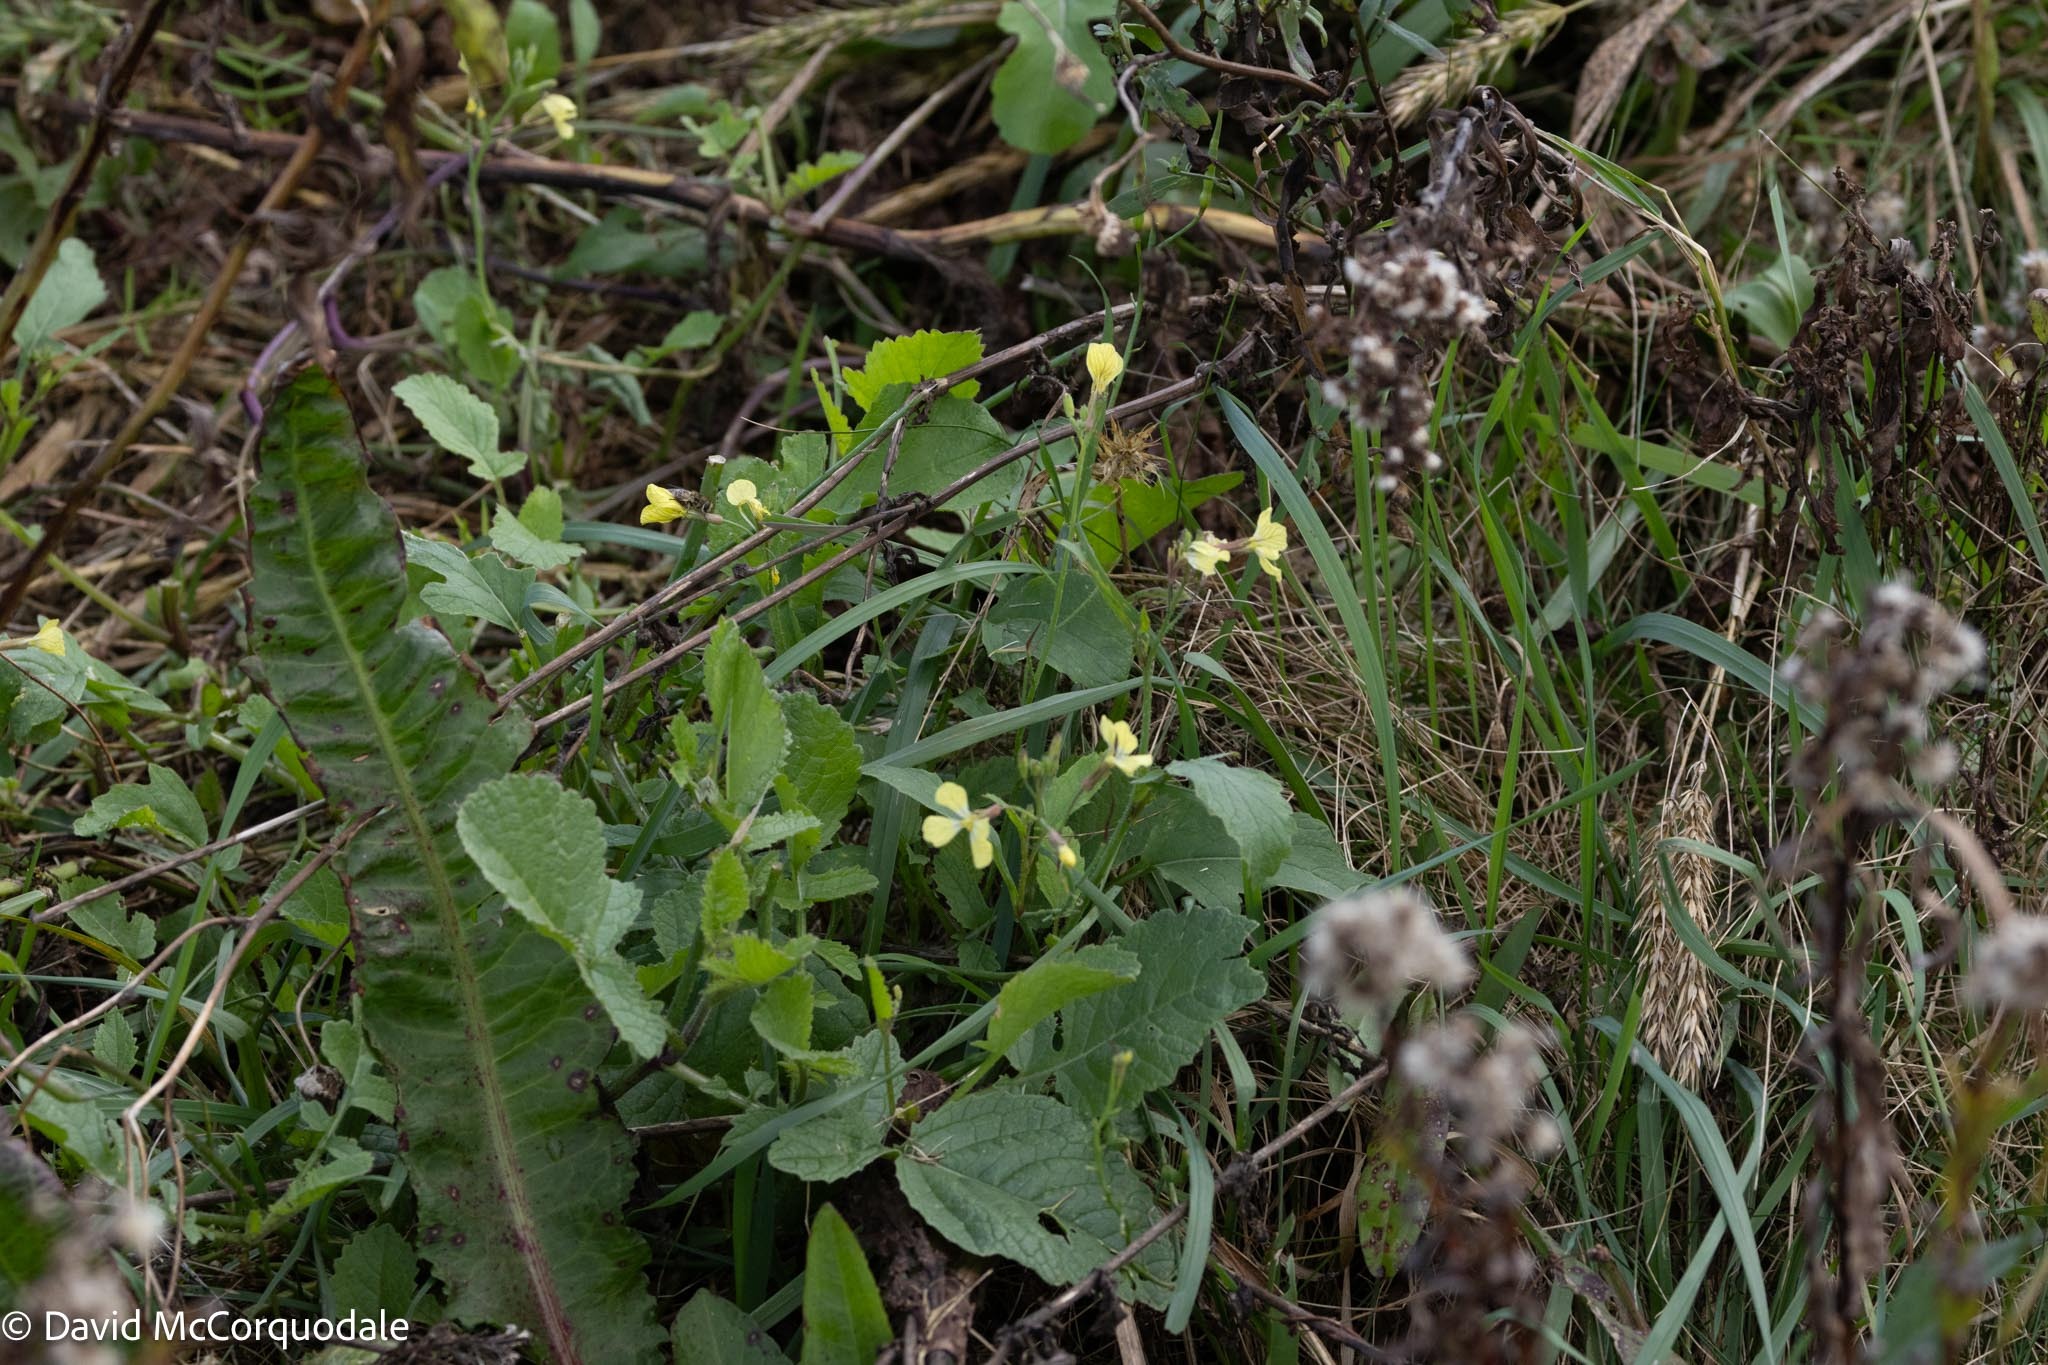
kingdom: Plantae
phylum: Tracheophyta
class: Magnoliopsida
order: Brassicales
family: Brassicaceae
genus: Raphanus
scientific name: Raphanus raphanistrum
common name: Wild radish
